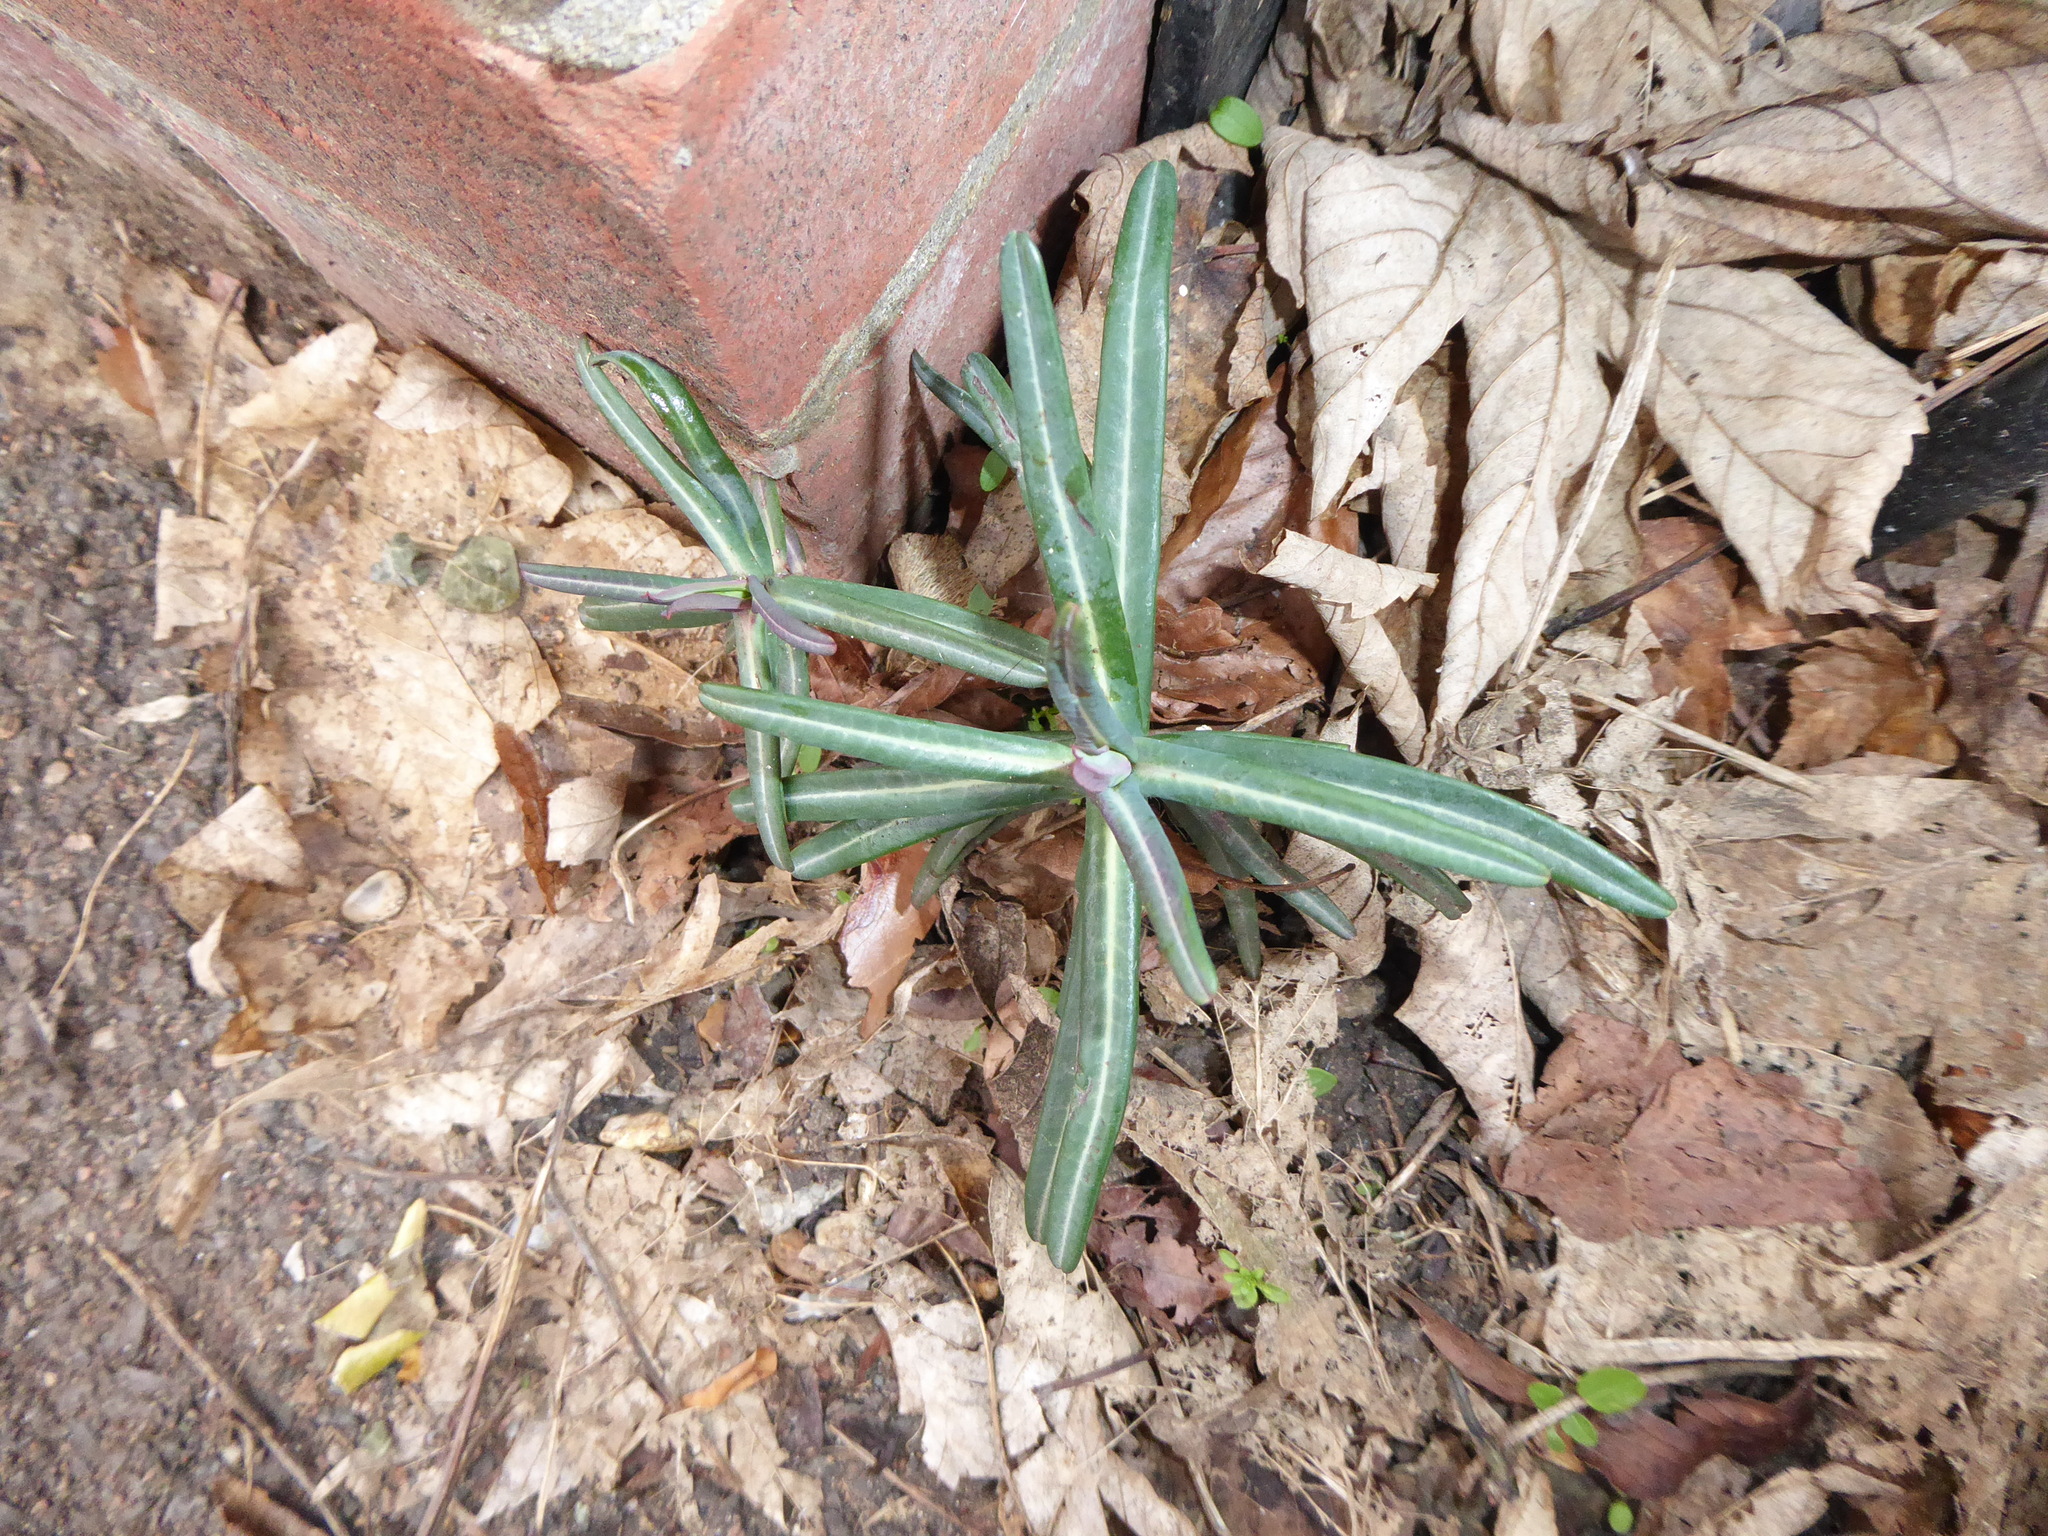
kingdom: Plantae
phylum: Tracheophyta
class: Magnoliopsida
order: Malpighiales
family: Euphorbiaceae
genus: Euphorbia
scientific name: Euphorbia lathyris
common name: Caper spurge
